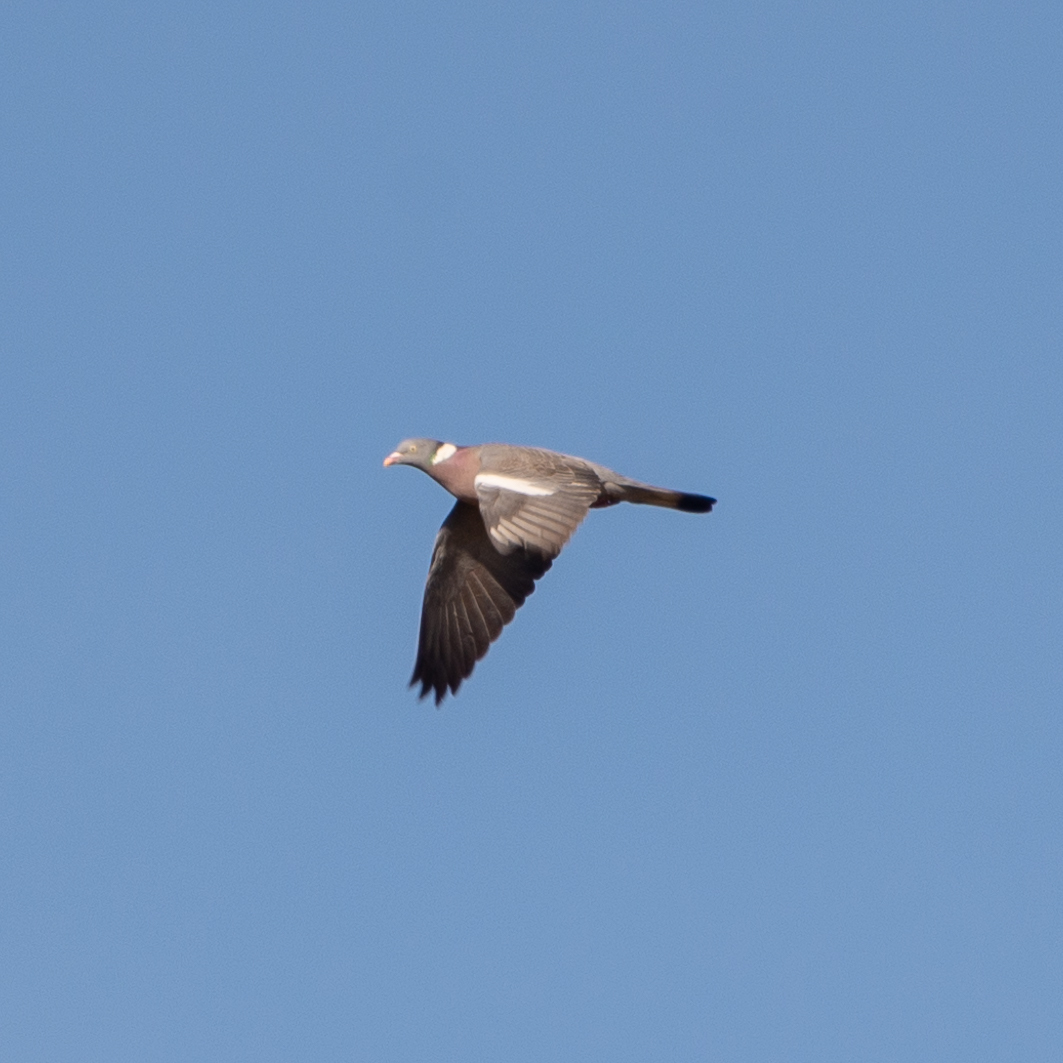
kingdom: Animalia
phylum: Chordata
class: Aves
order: Columbiformes
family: Columbidae
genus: Columba
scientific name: Columba palumbus
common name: Common wood pigeon
